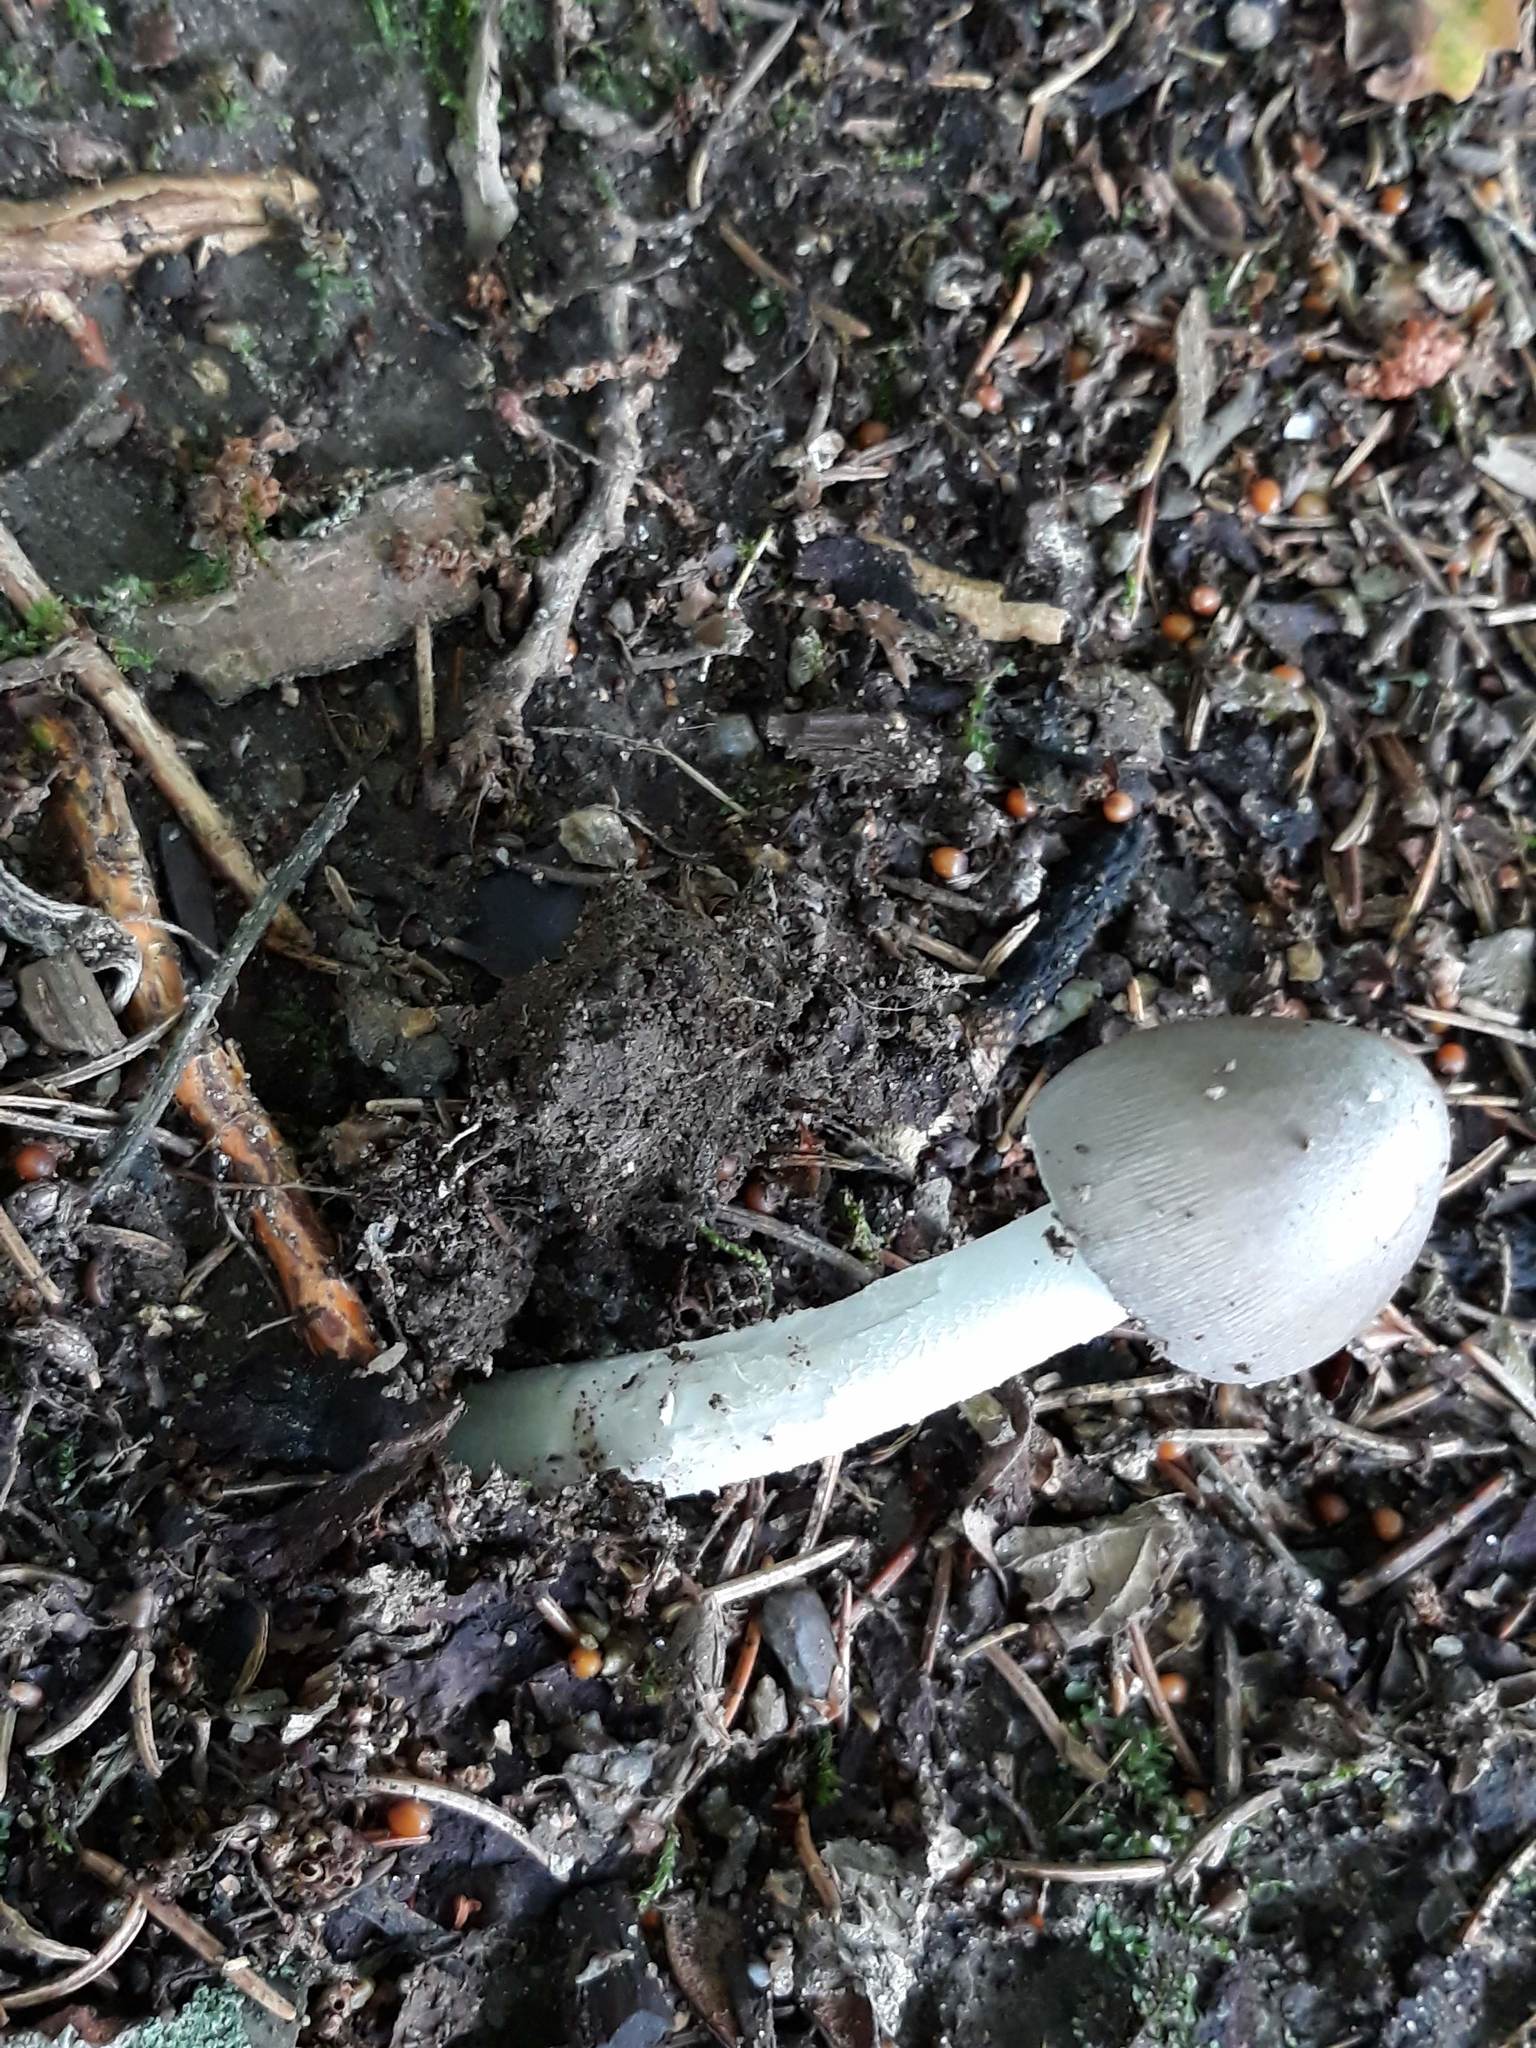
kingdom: Fungi
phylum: Basidiomycota
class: Agaricomycetes
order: Agaricales
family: Amanitaceae
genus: Amanita
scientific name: Amanita
